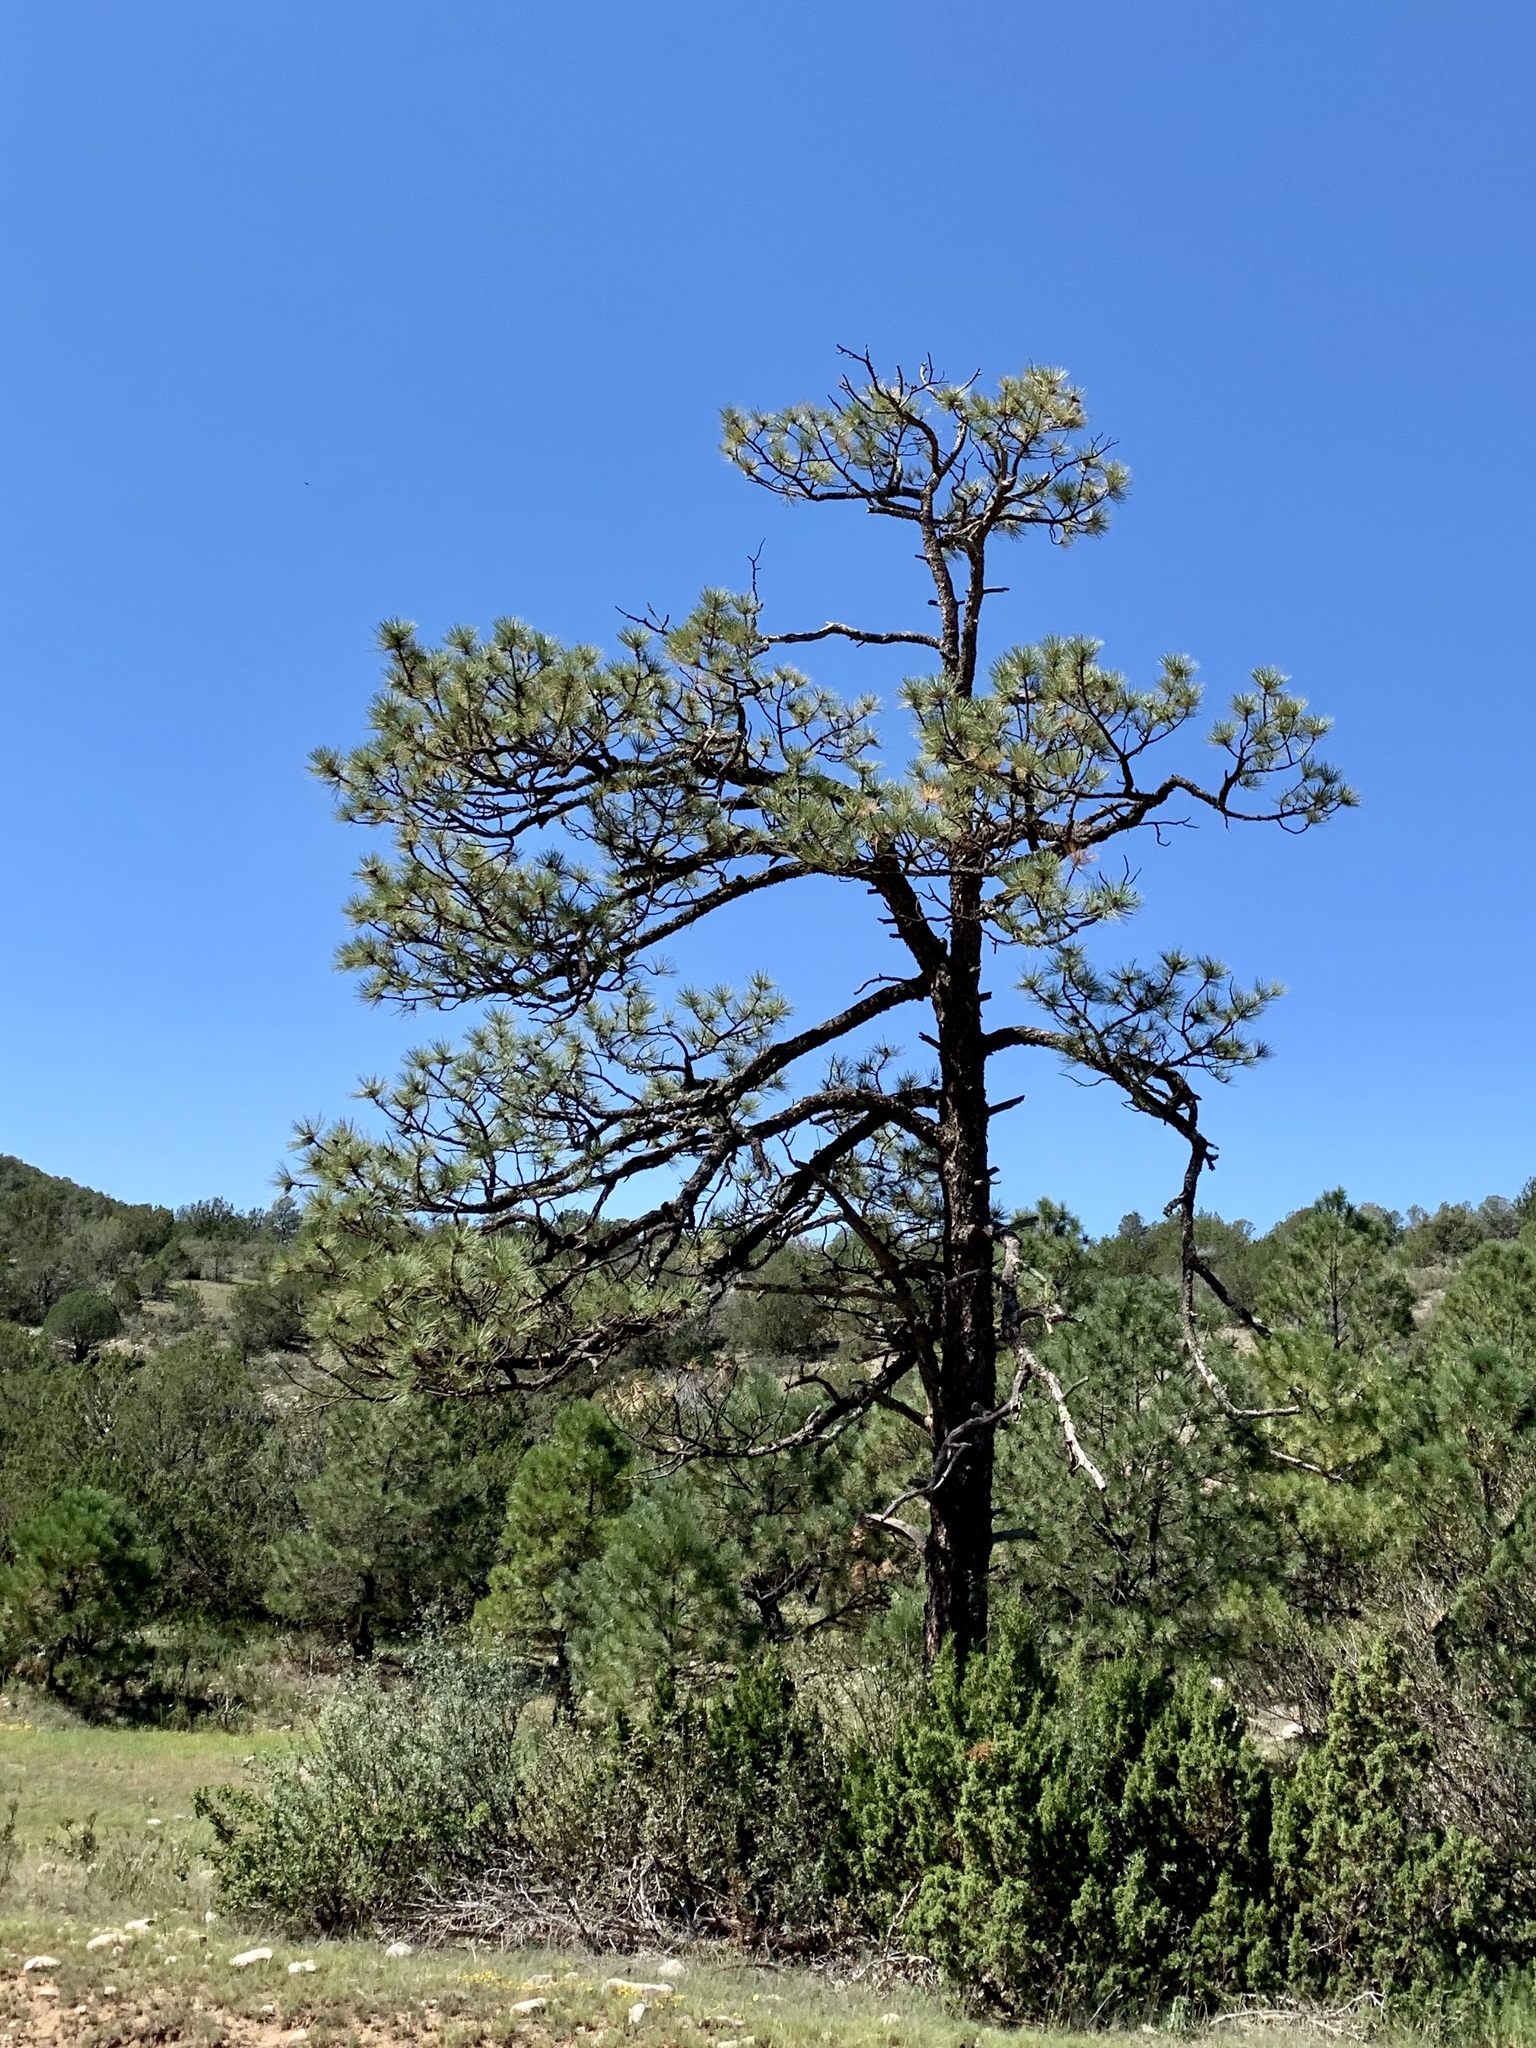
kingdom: Plantae
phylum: Tracheophyta
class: Pinopsida
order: Pinales
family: Pinaceae
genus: Pinus
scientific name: Pinus ponderosa
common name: Western yellow-pine
